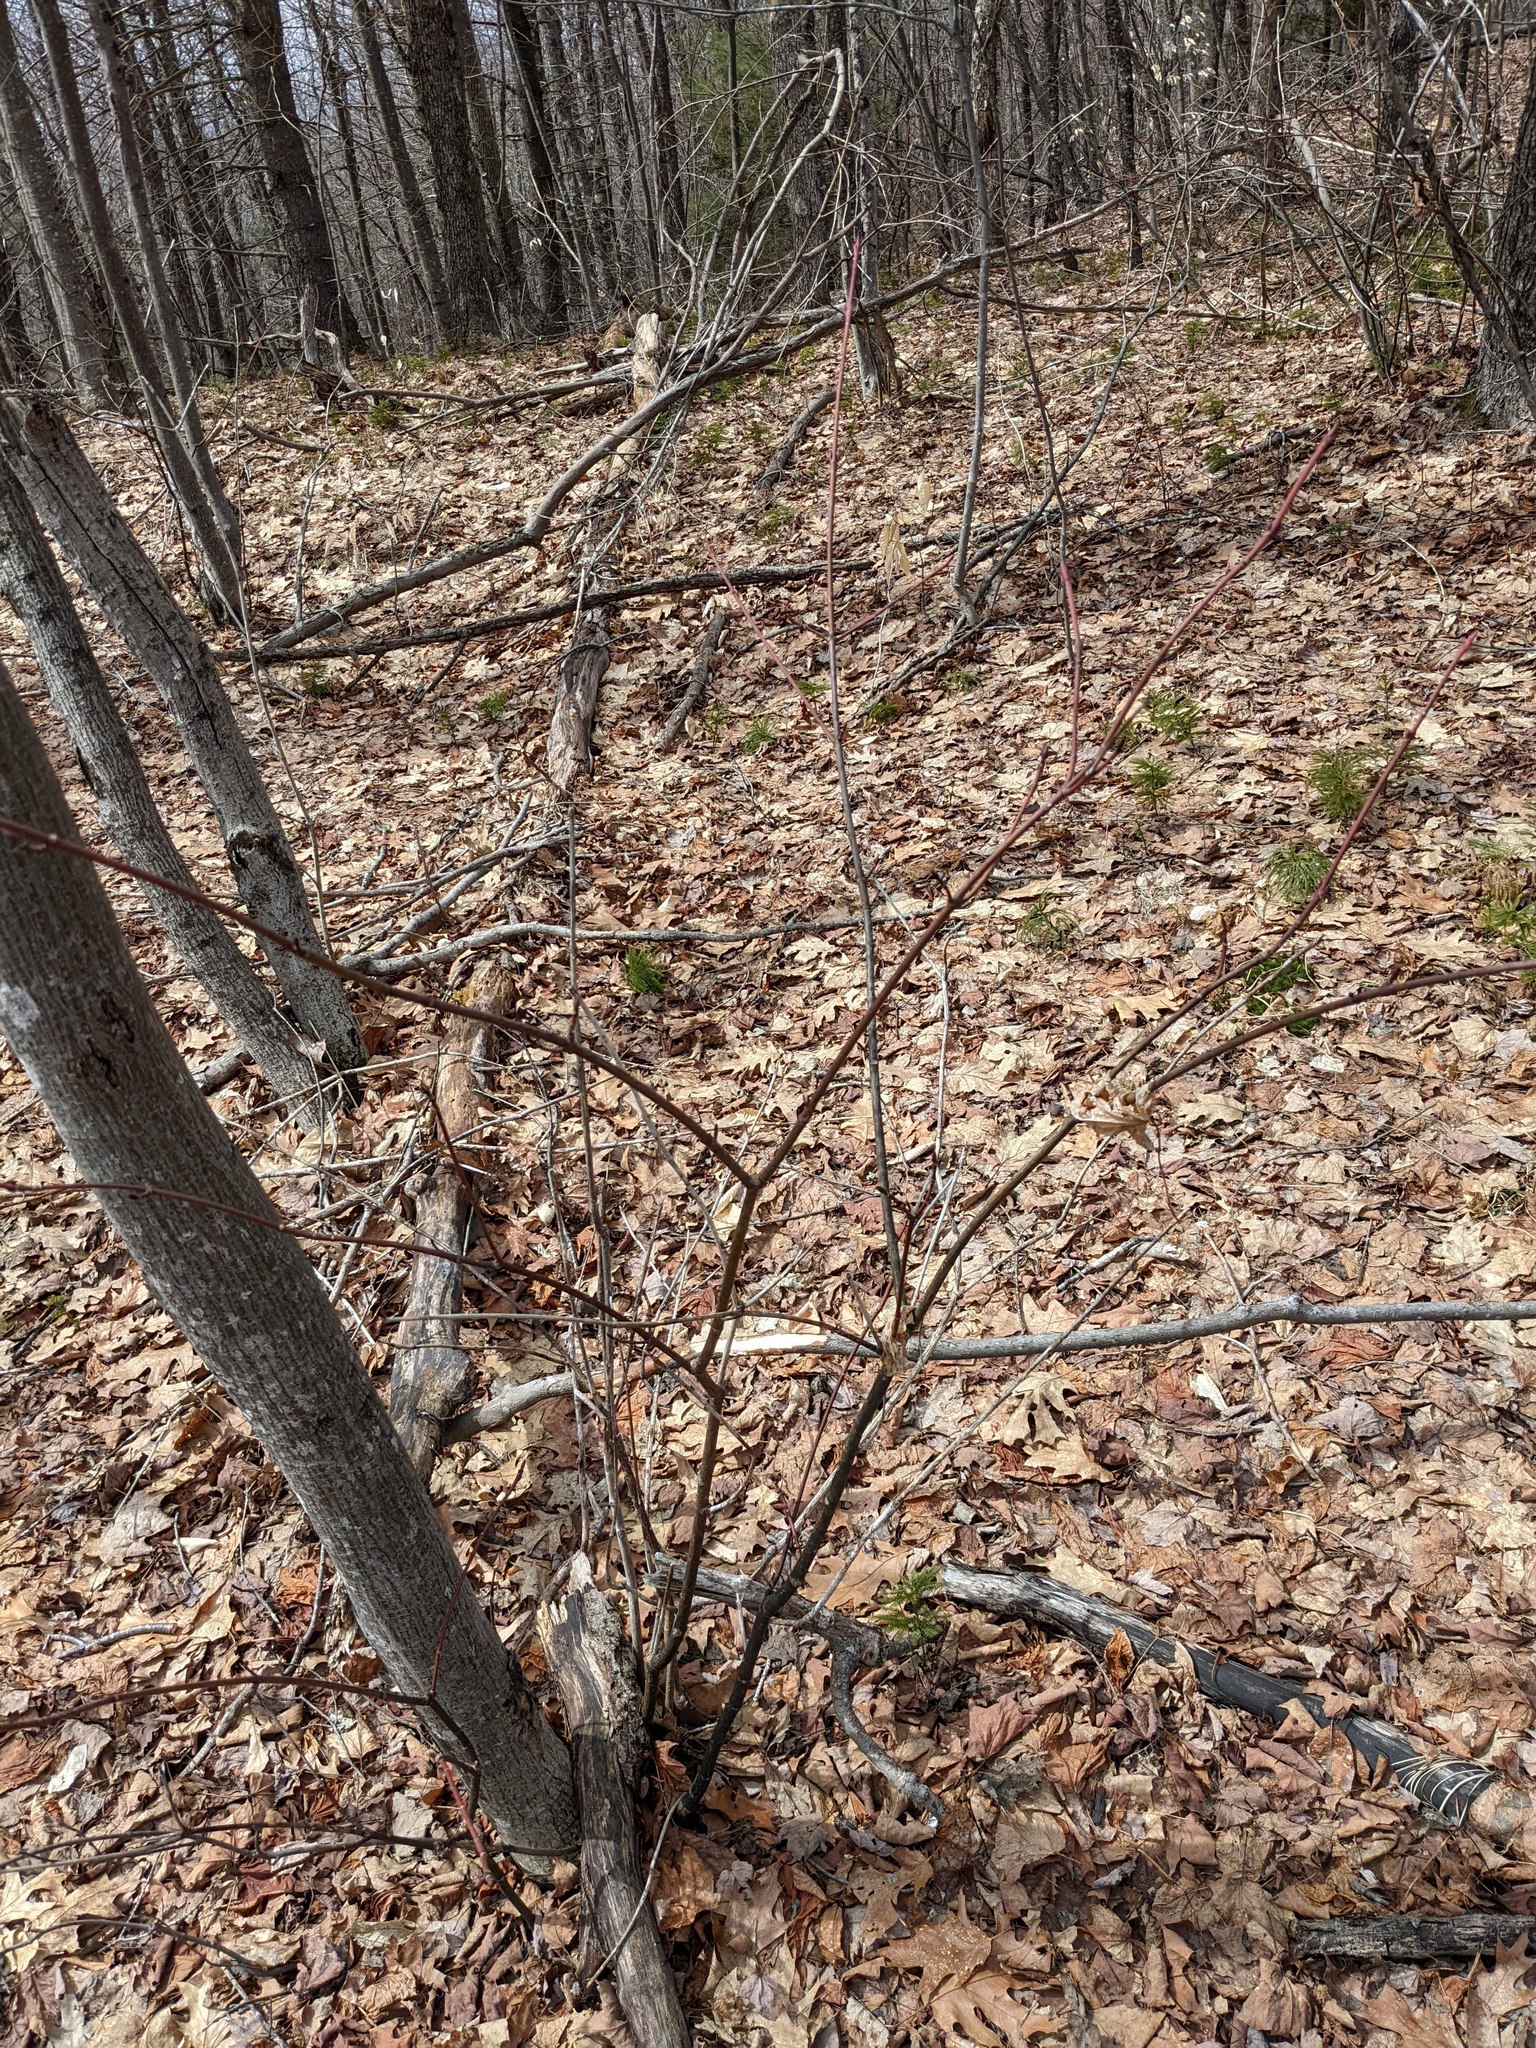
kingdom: Plantae
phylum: Tracheophyta
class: Magnoliopsida
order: Sapindales
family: Sapindaceae
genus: Acer
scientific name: Acer pensylvanicum
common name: Moosewood
